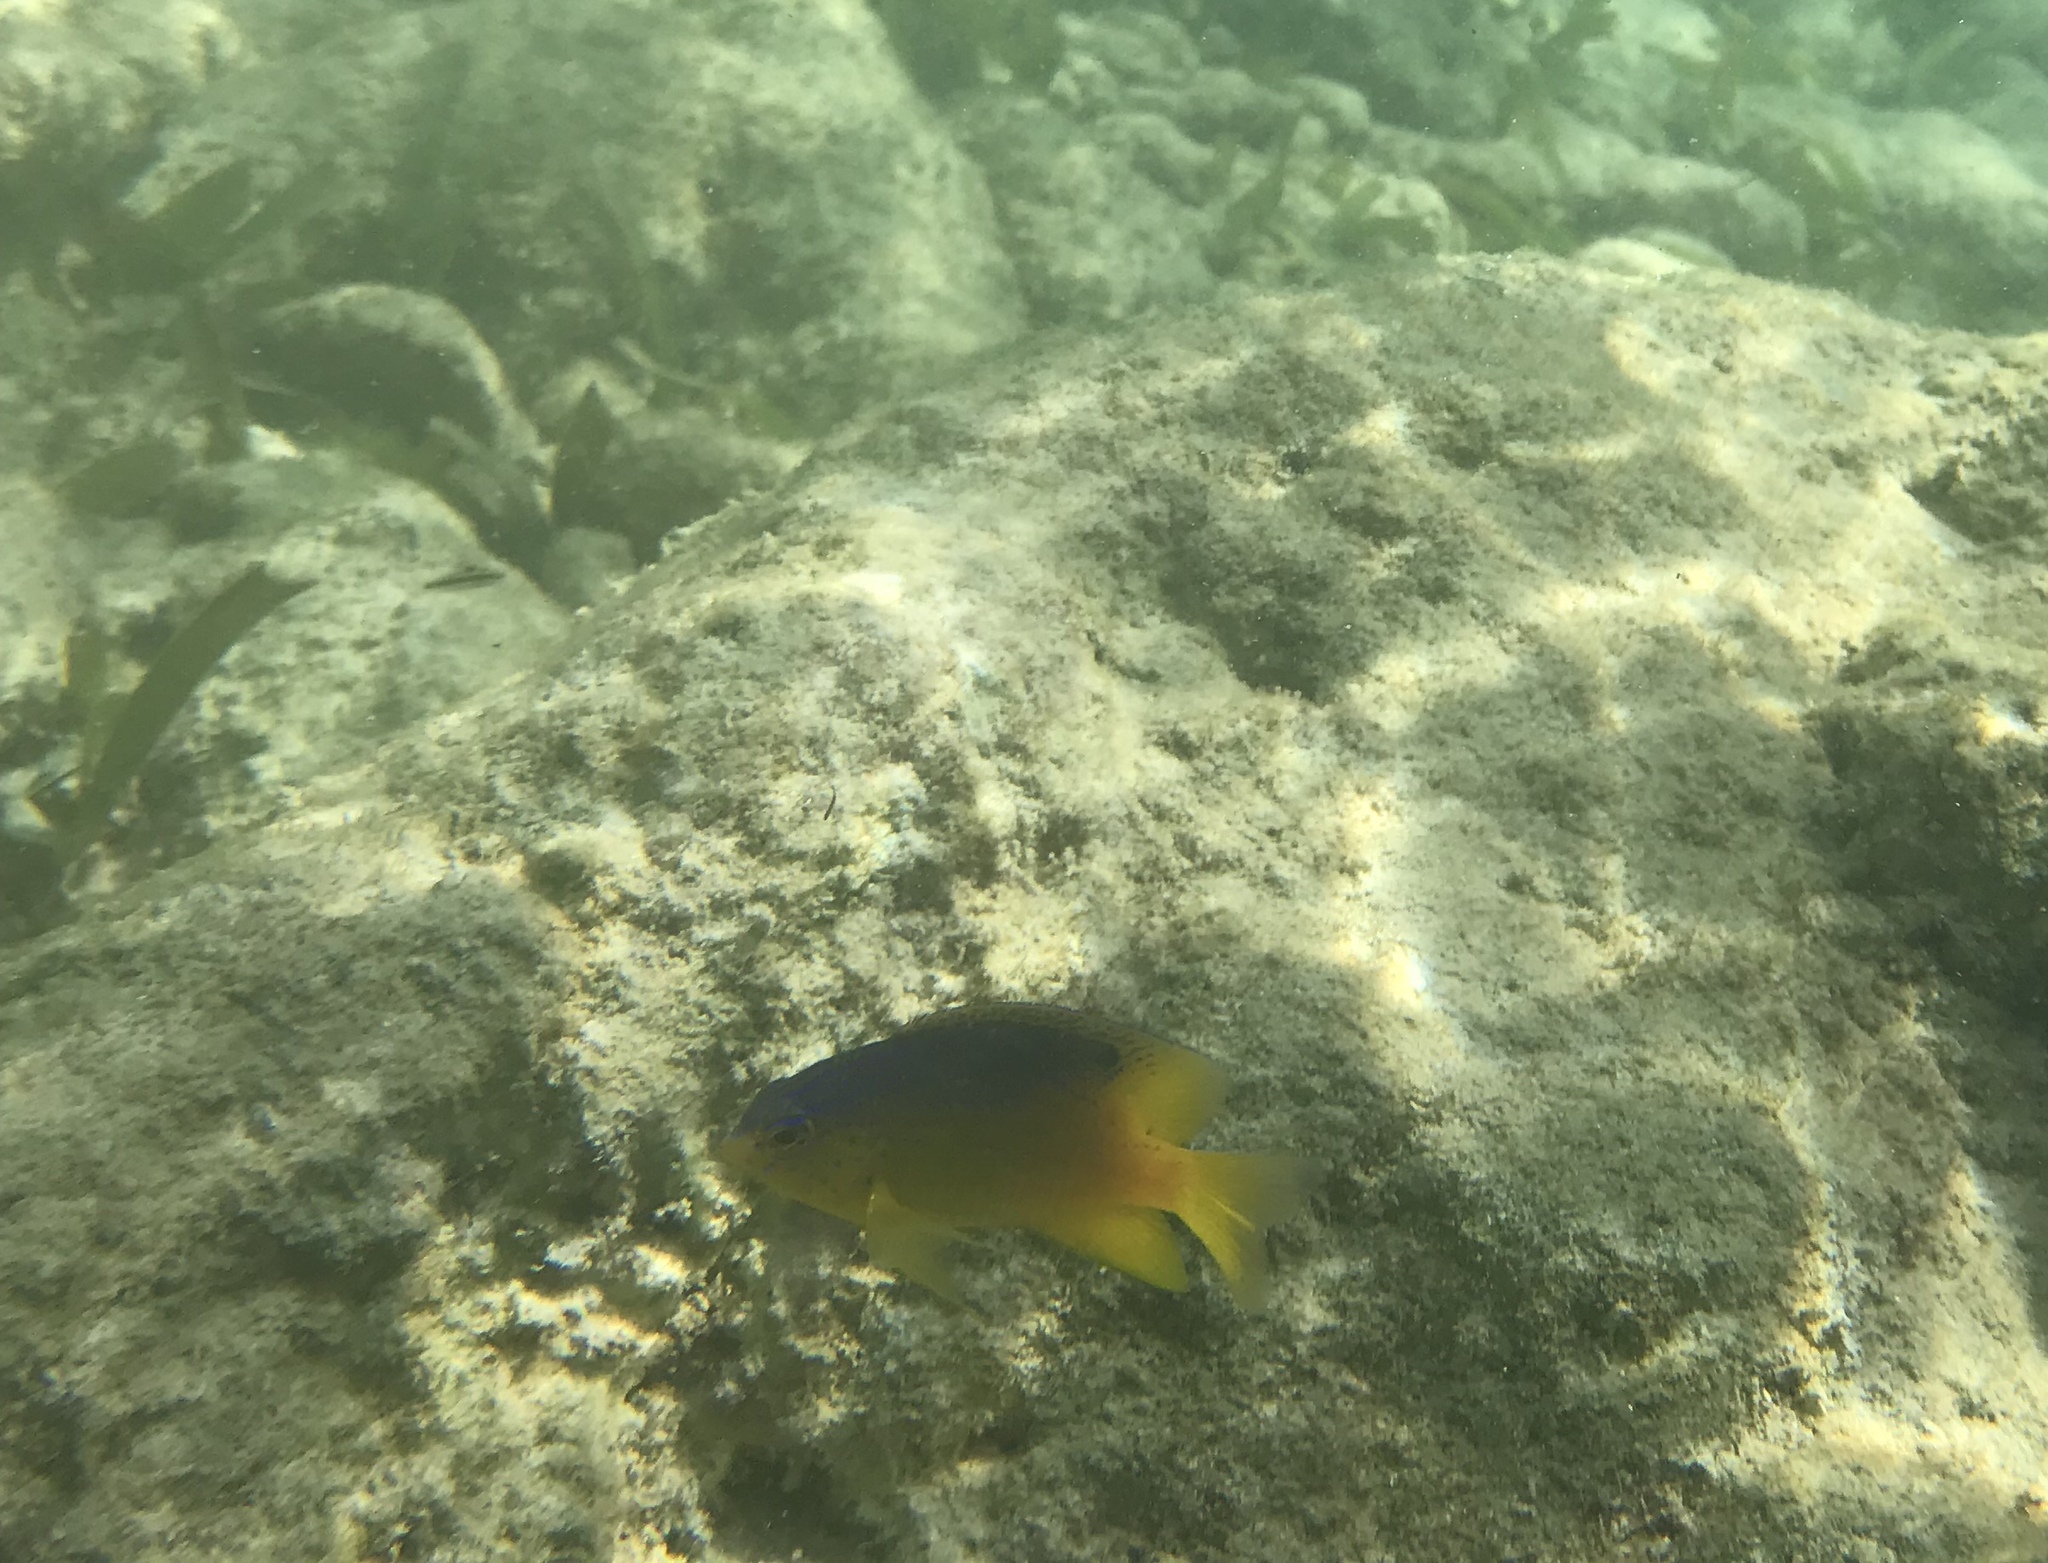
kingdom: Animalia
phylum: Chordata
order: Perciformes
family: Pomacentridae
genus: Stegastes
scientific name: Stegastes leucostictus
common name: Beaugregory
